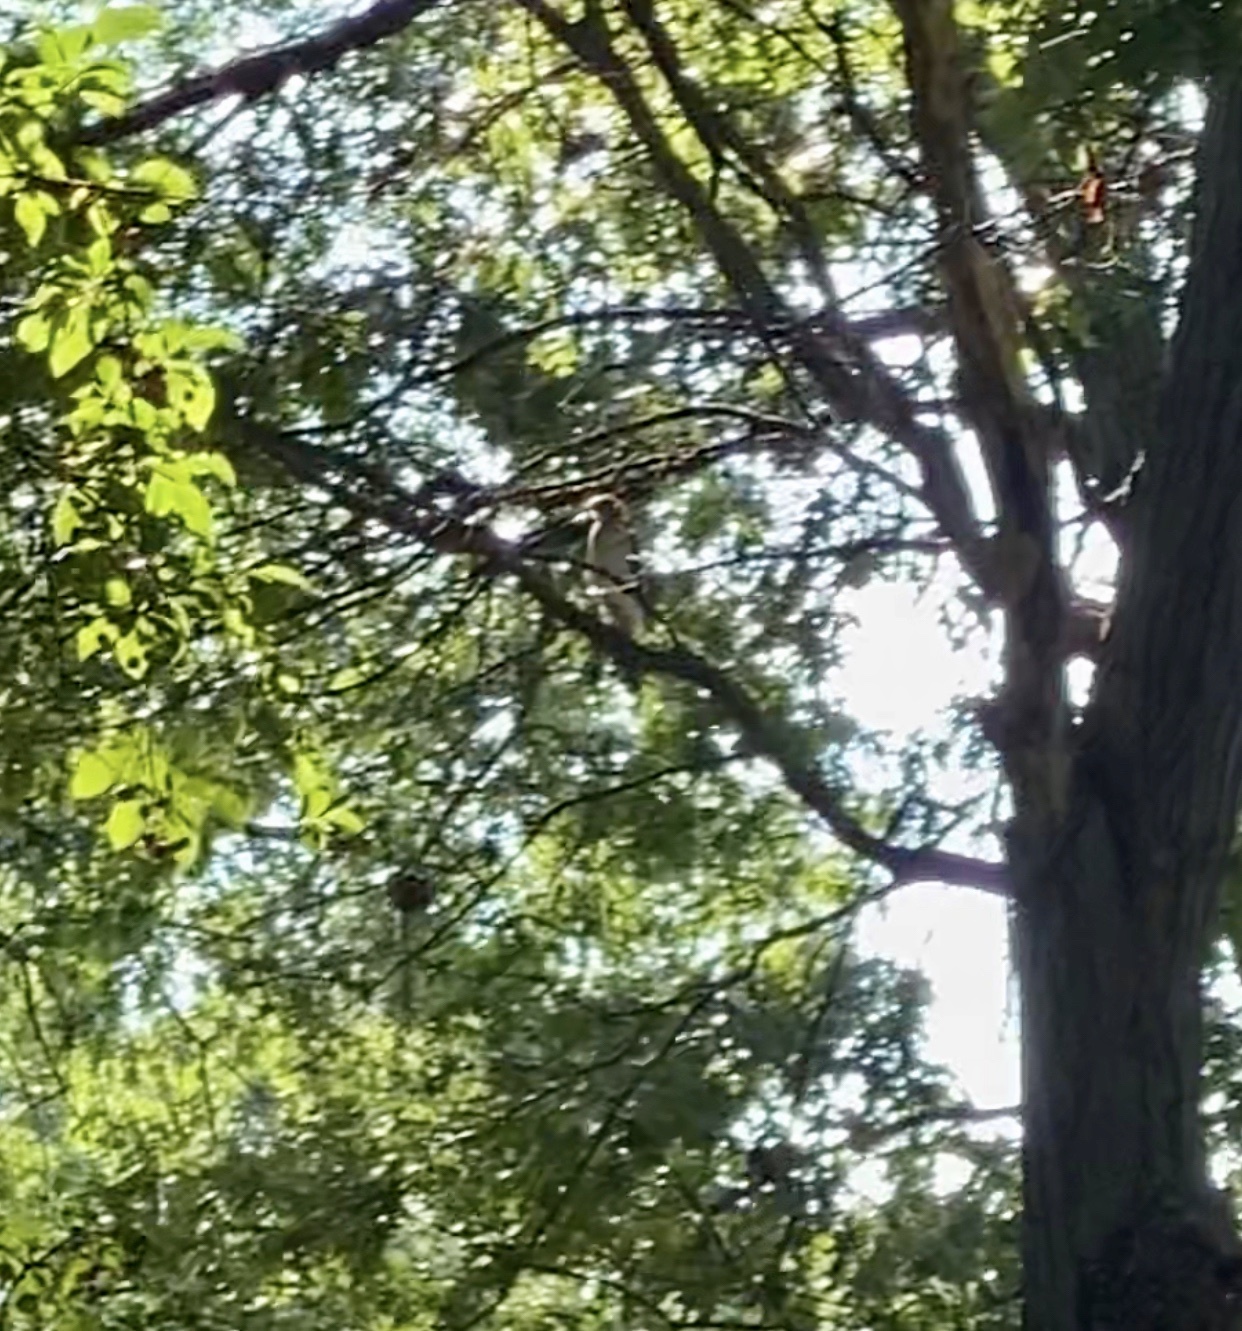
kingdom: Animalia
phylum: Chordata
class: Aves
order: Accipitriformes
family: Accipitridae
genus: Accipiter
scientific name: Accipiter cooperii
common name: Cooper's hawk
